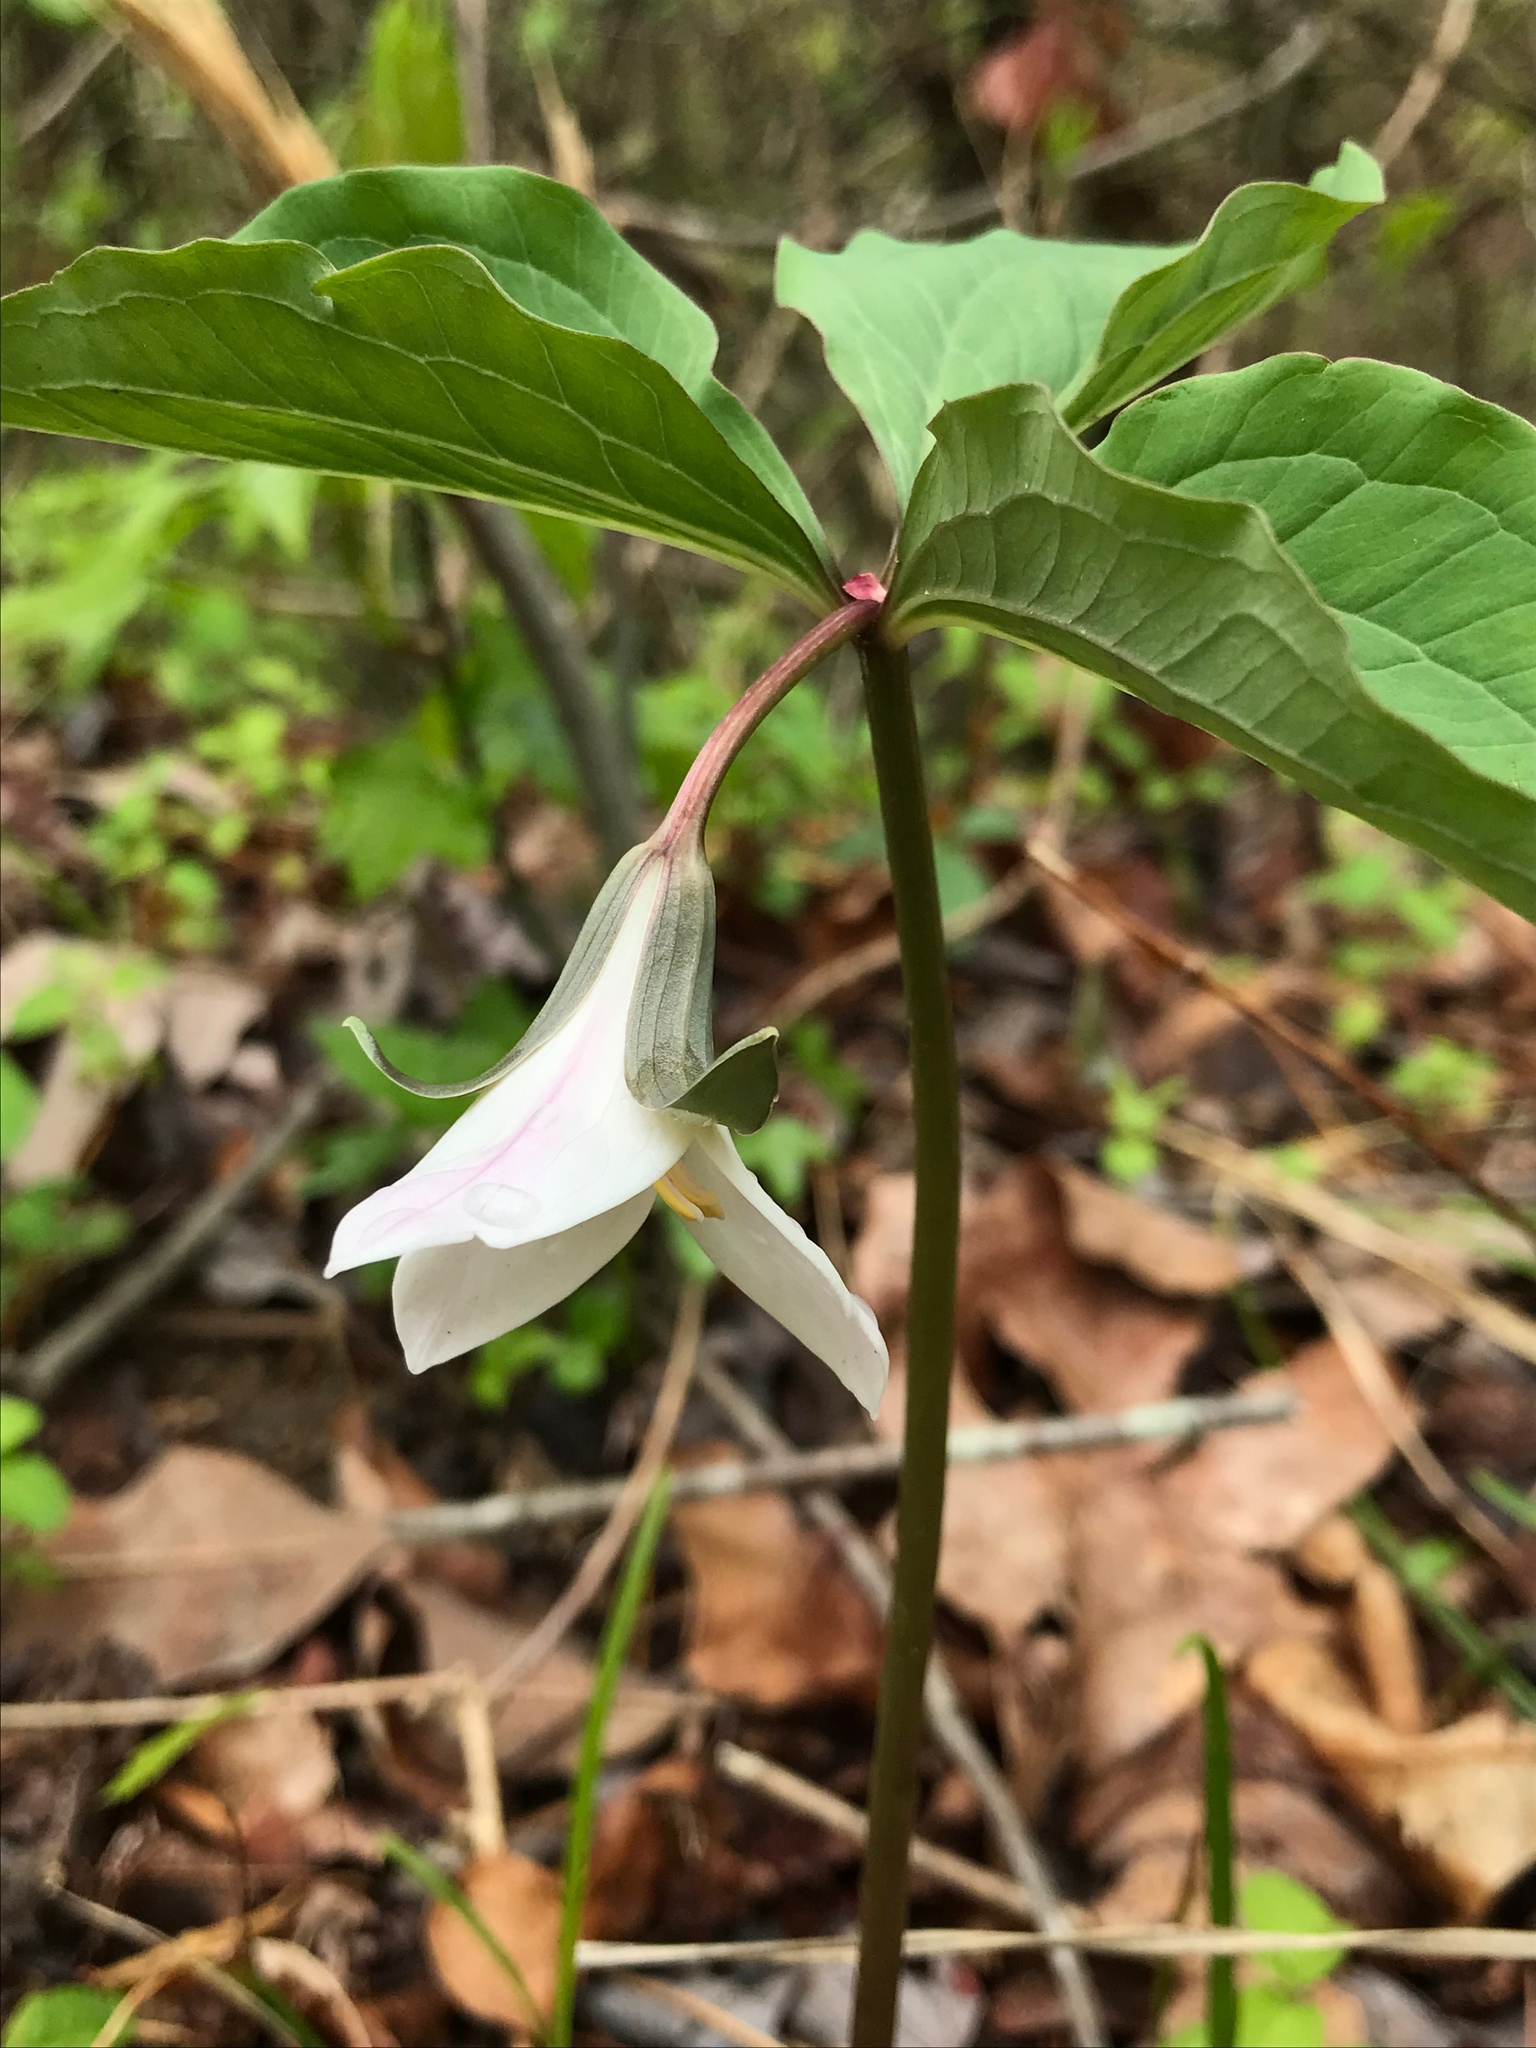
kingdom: Plantae
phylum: Tracheophyta
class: Liliopsida
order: Liliales
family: Melanthiaceae
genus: Trillium
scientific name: Trillium catesbaei
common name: Bashful trillium
